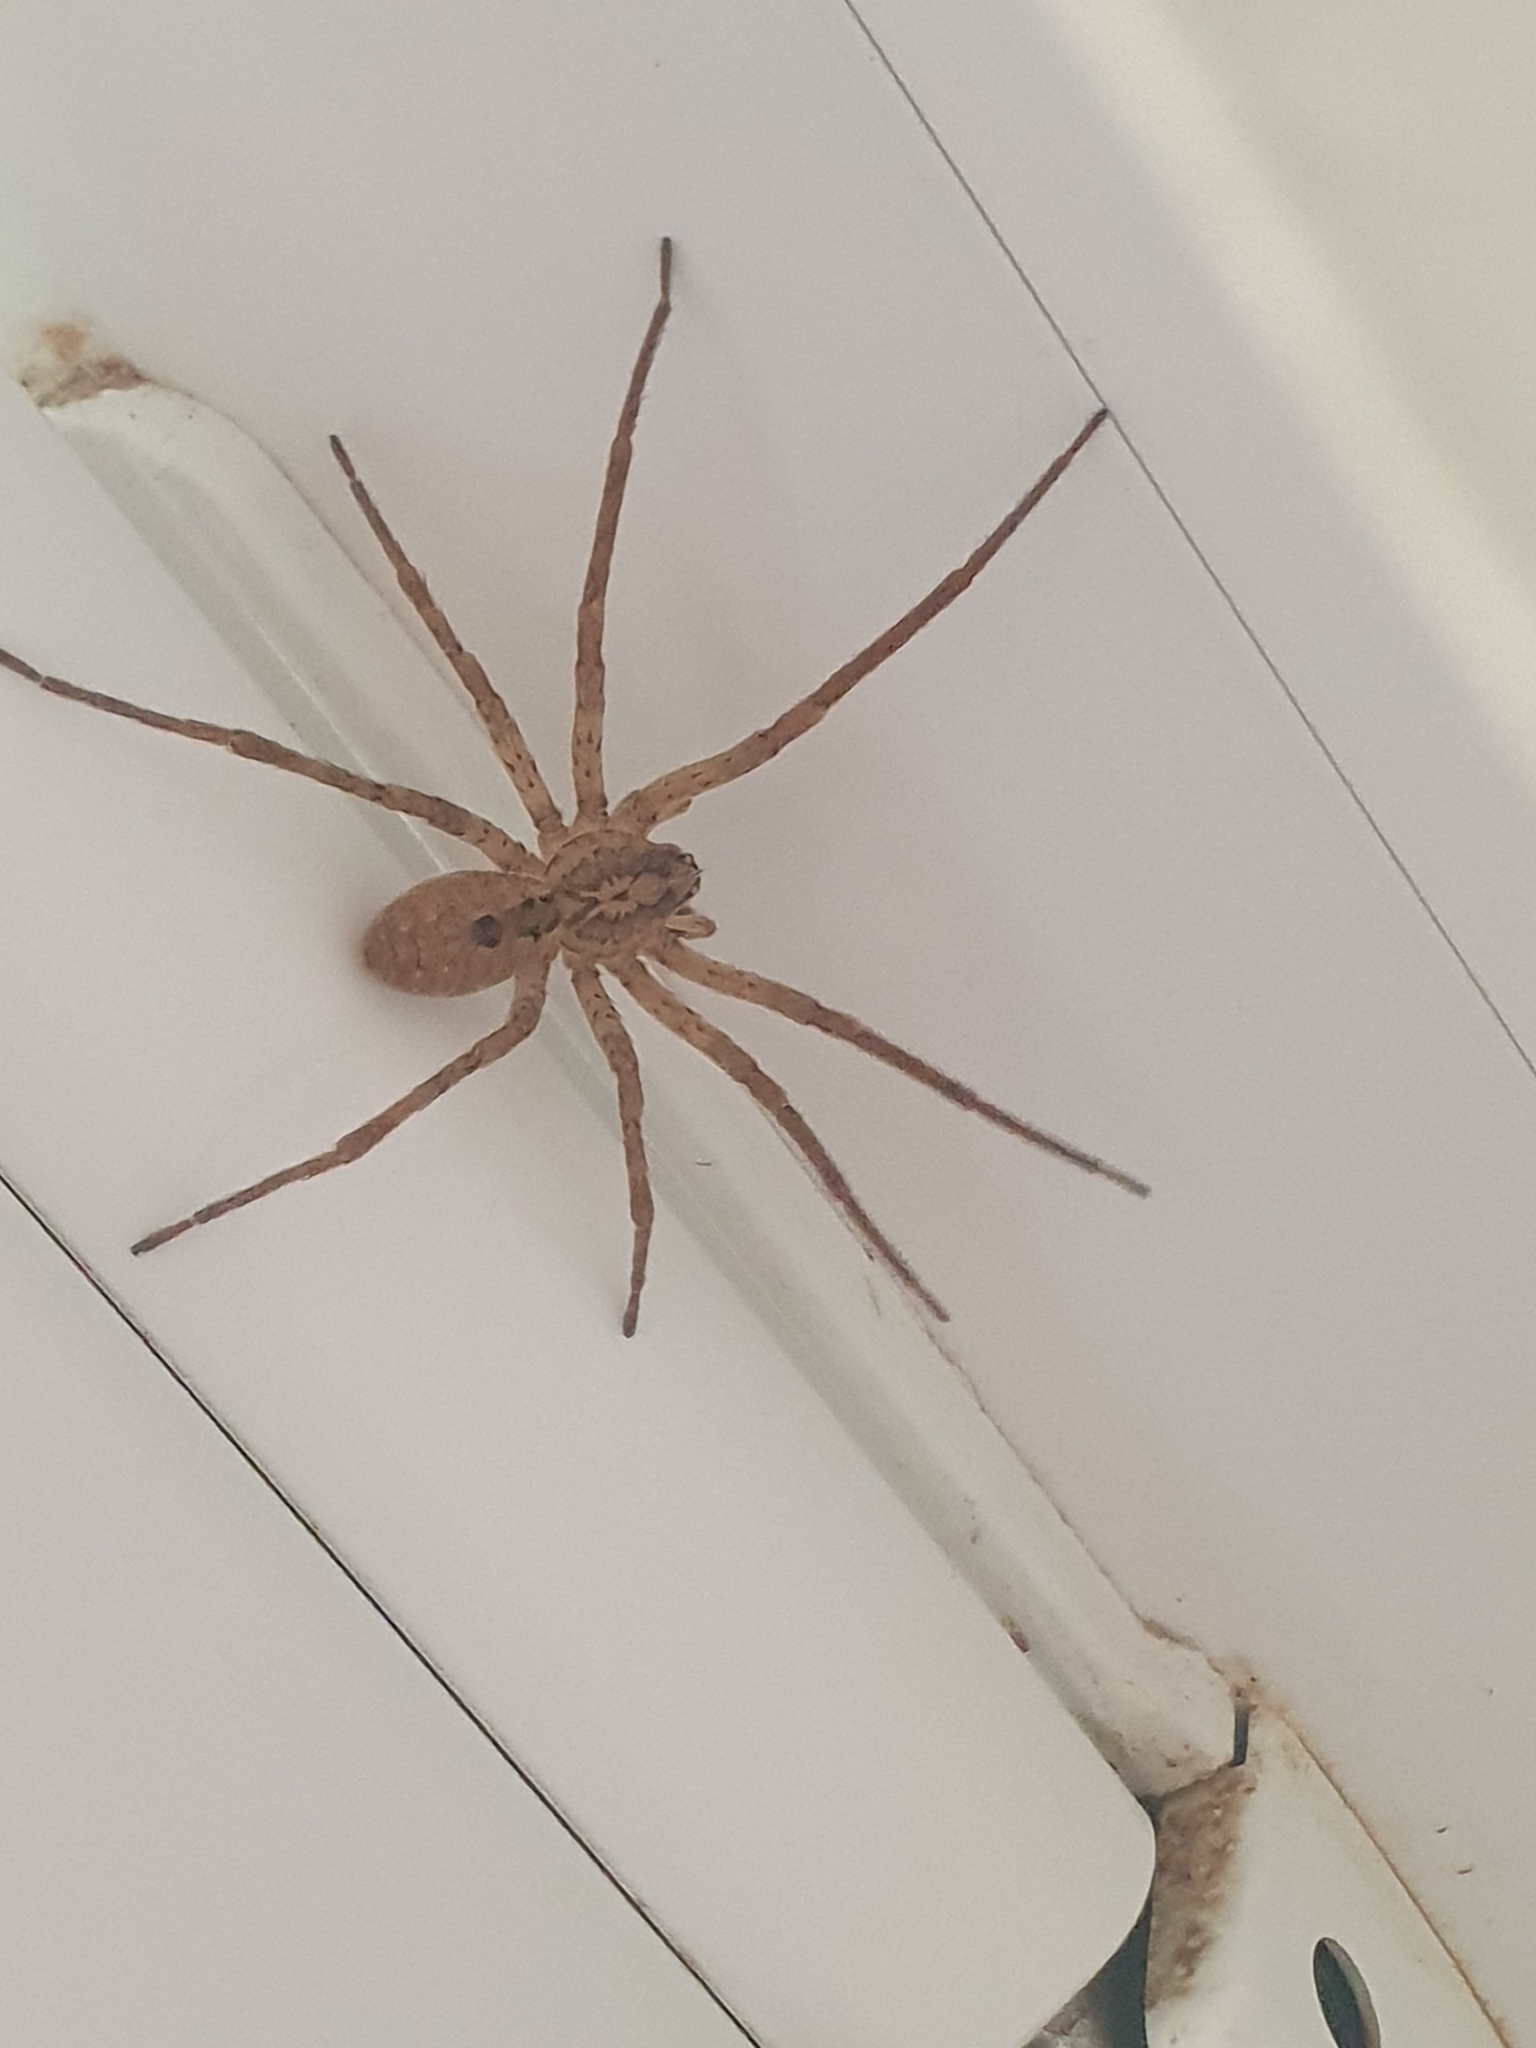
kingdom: Animalia
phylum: Arthropoda
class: Arachnida
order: Araneae
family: Zoropsidae
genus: Zoropsis
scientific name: Zoropsis spinimana
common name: Zoropsid spider
